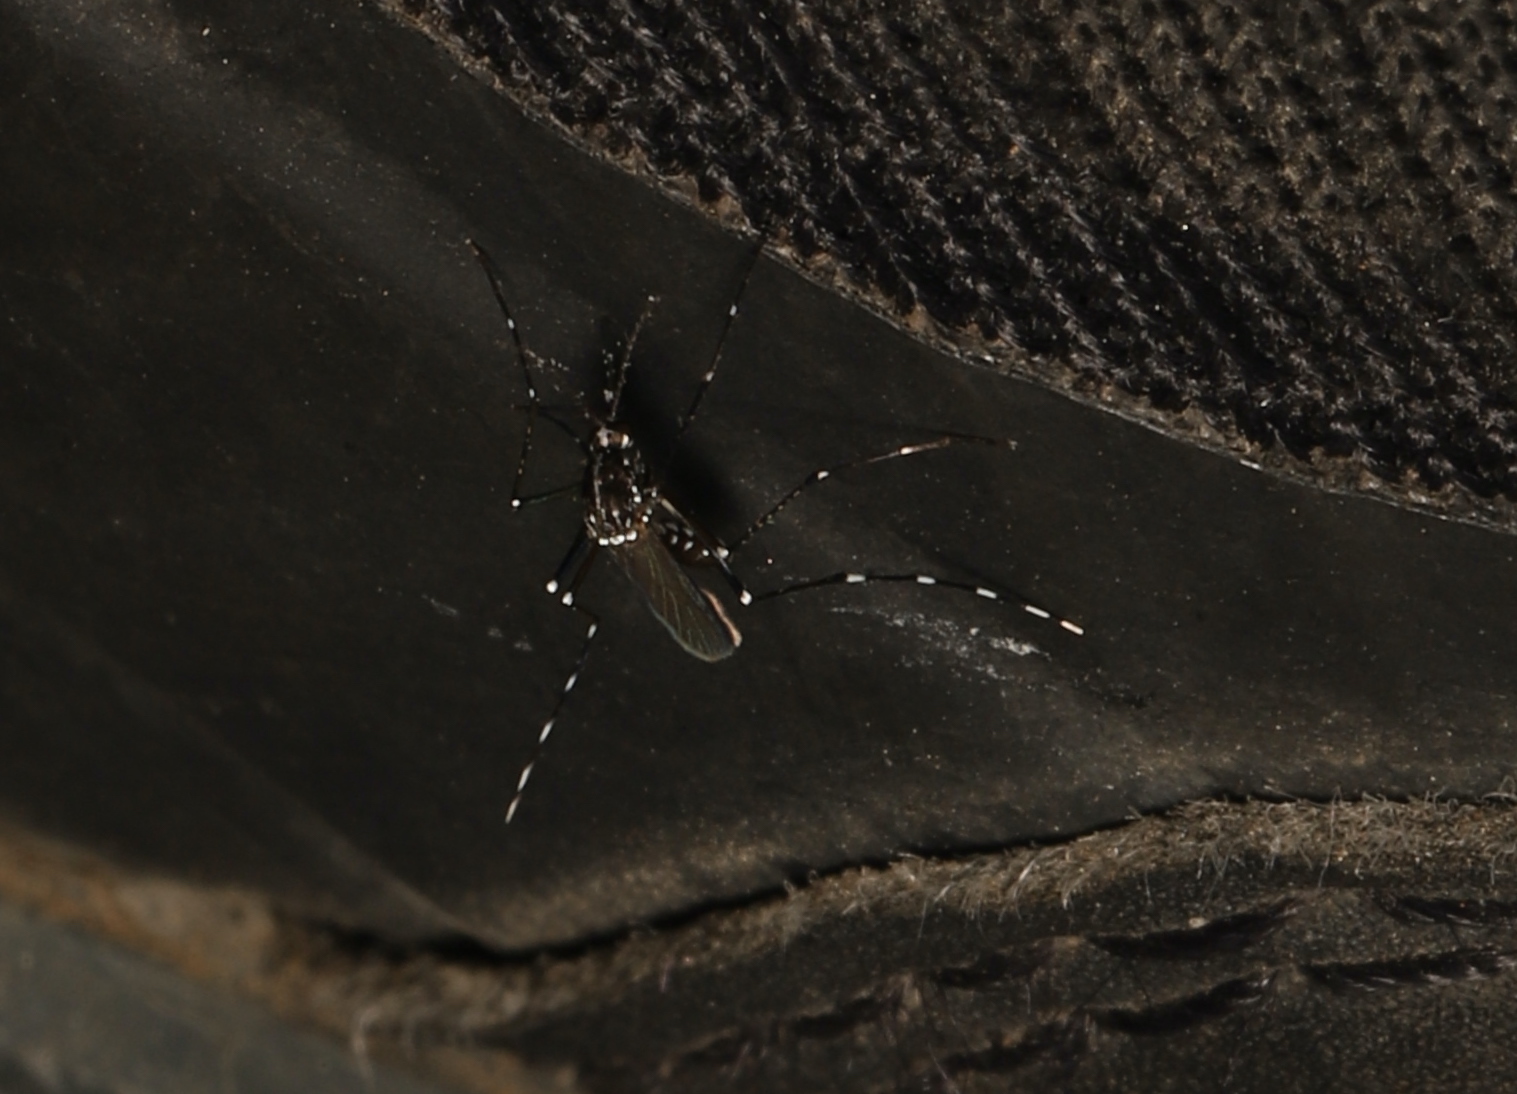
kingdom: Animalia
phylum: Arthropoda
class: Insecta
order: Diptera
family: Culicidae
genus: Aedes
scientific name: Aedes albopictus
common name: Tiger mosquito
